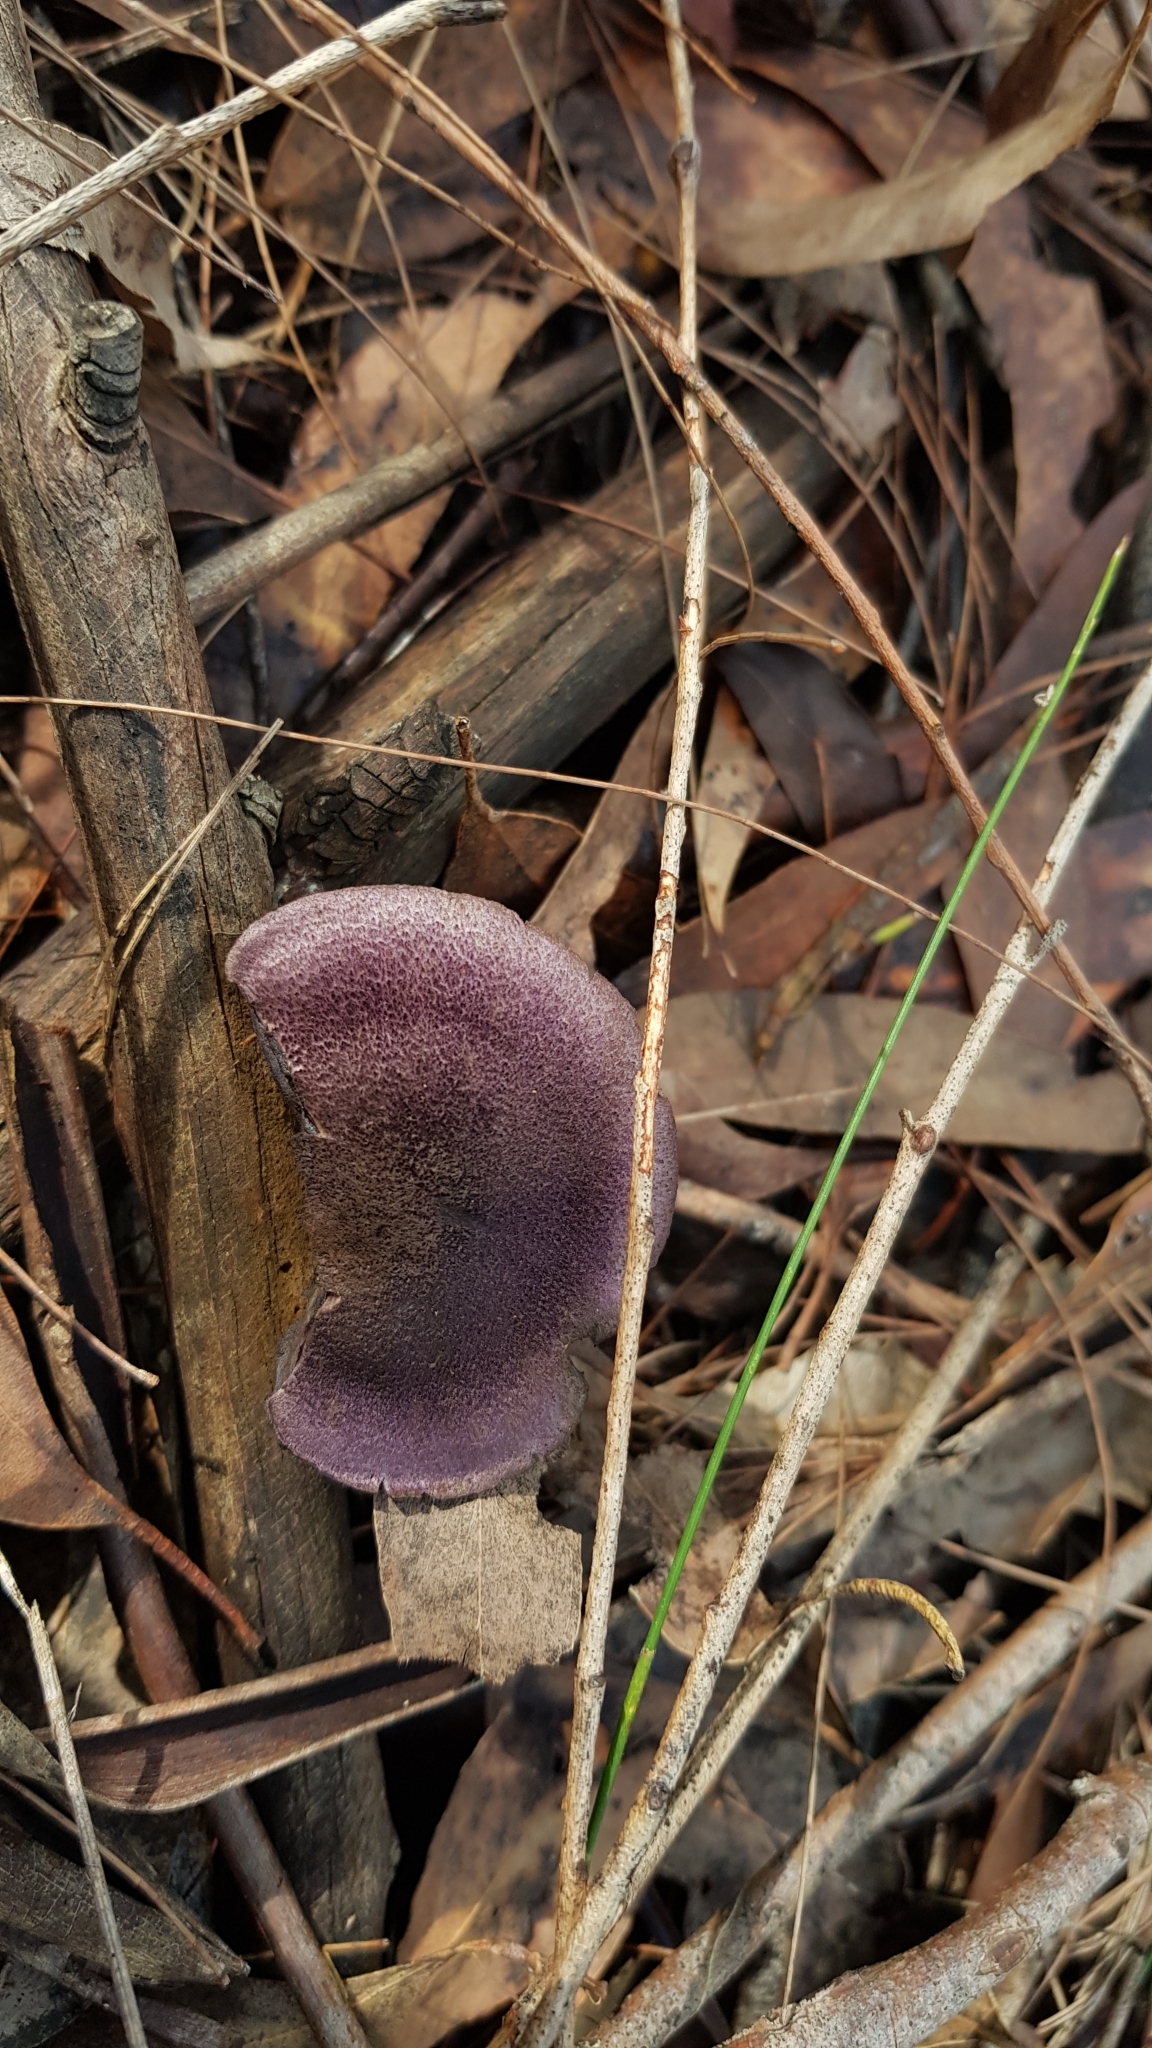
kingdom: Fungi
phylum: Basidiomycota
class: Agaricomycetes
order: Agaricales
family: Cortinariaceae
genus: Cortinarius
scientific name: Cortinarius kioloensis
